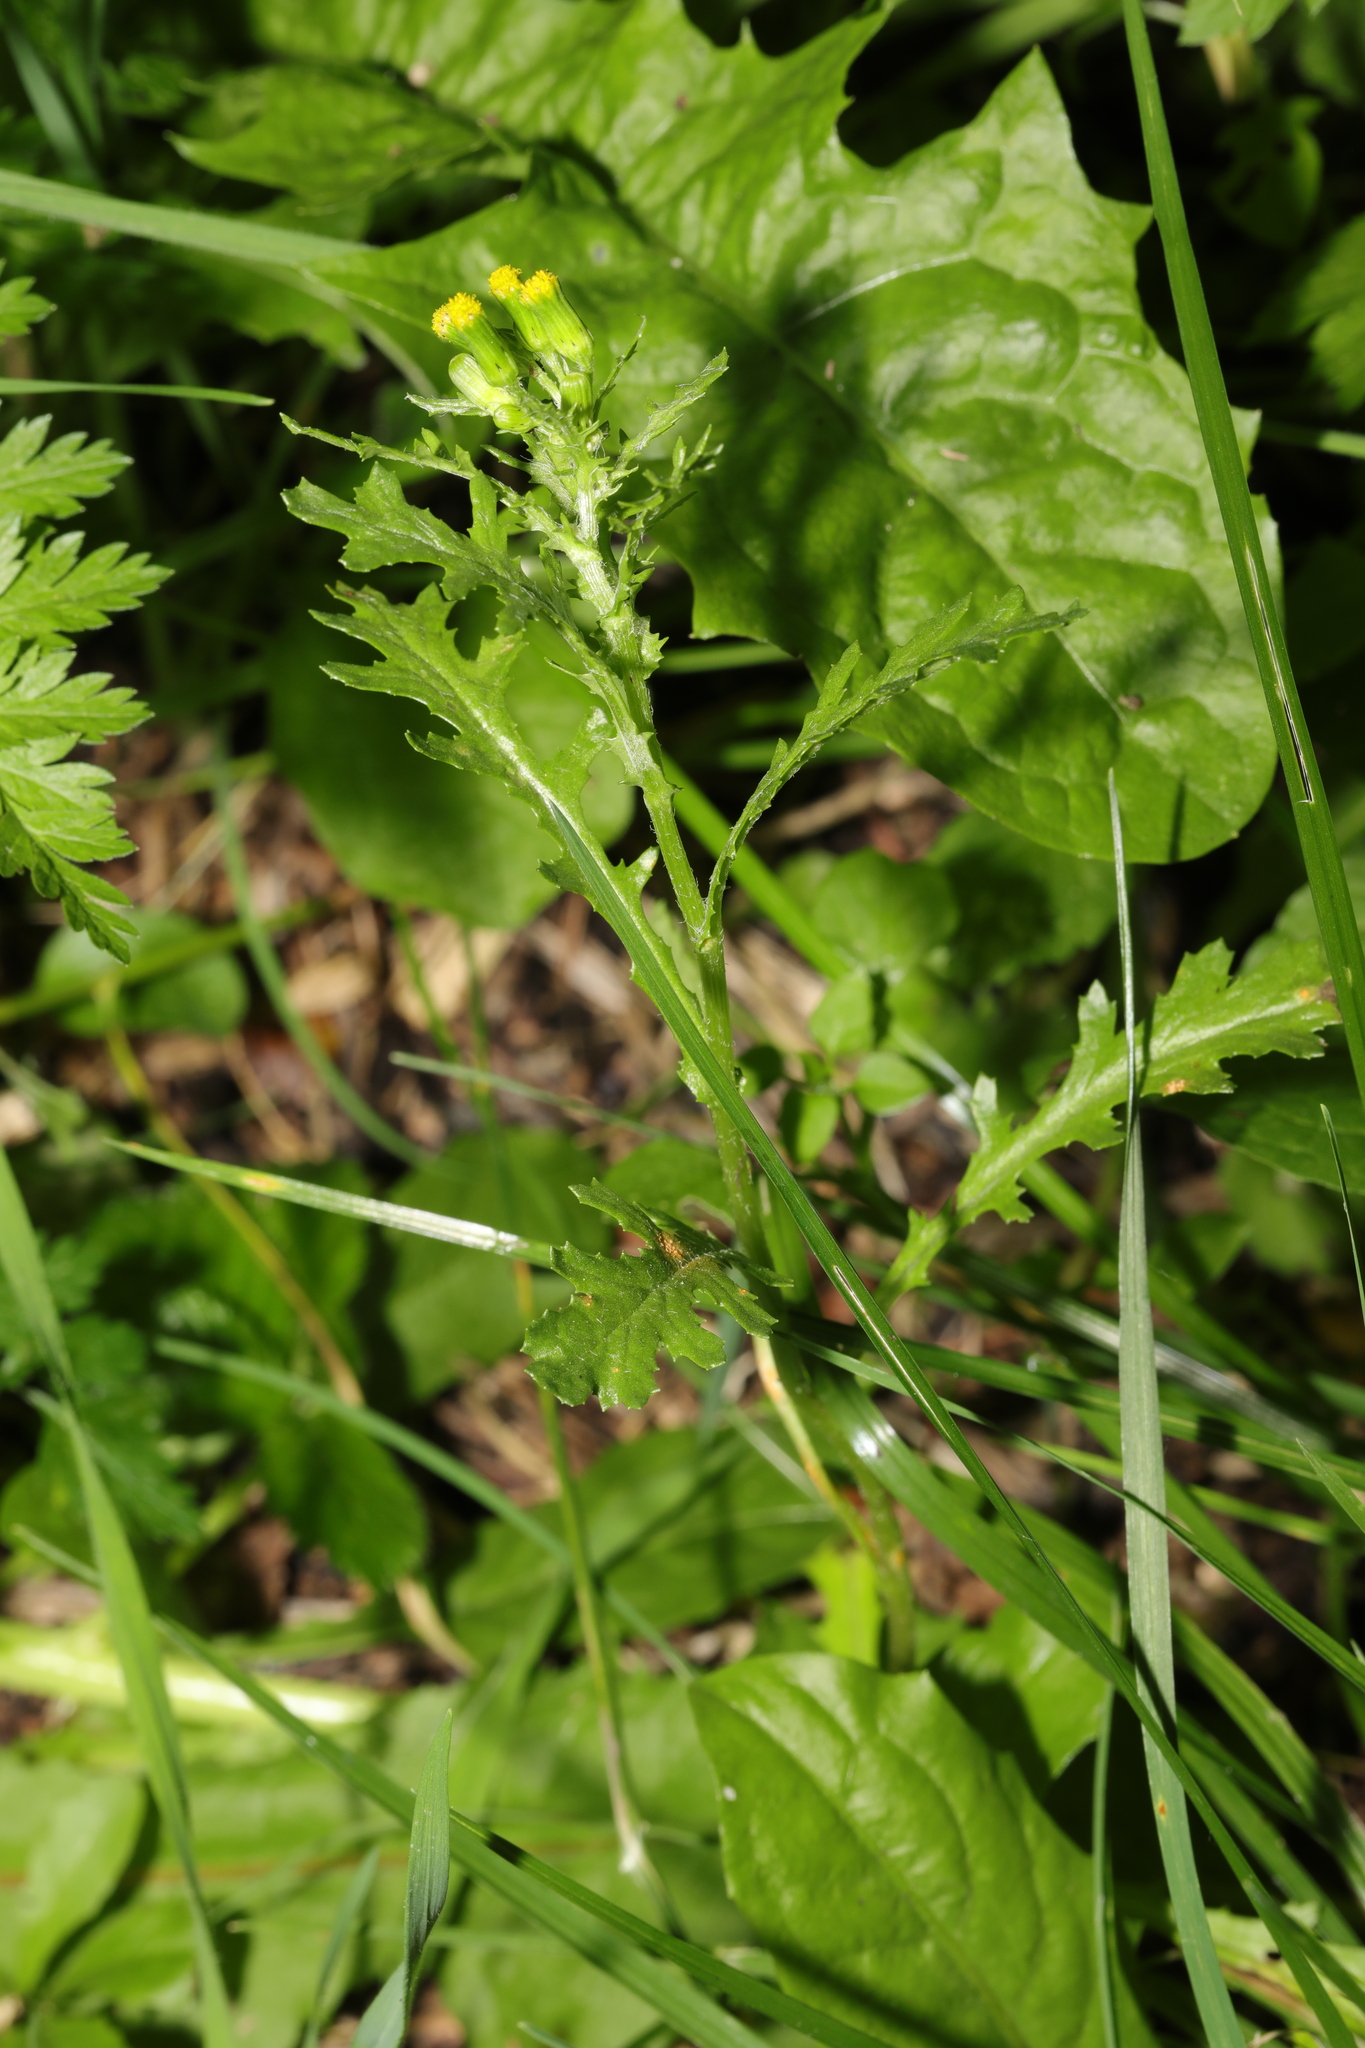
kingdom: Plantae
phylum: Tracheophyta
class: Magnoliopsida
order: Asterales
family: Asteraceae
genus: Senecio
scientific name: Senecio vulgaris
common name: Old-man-in-the-spring
